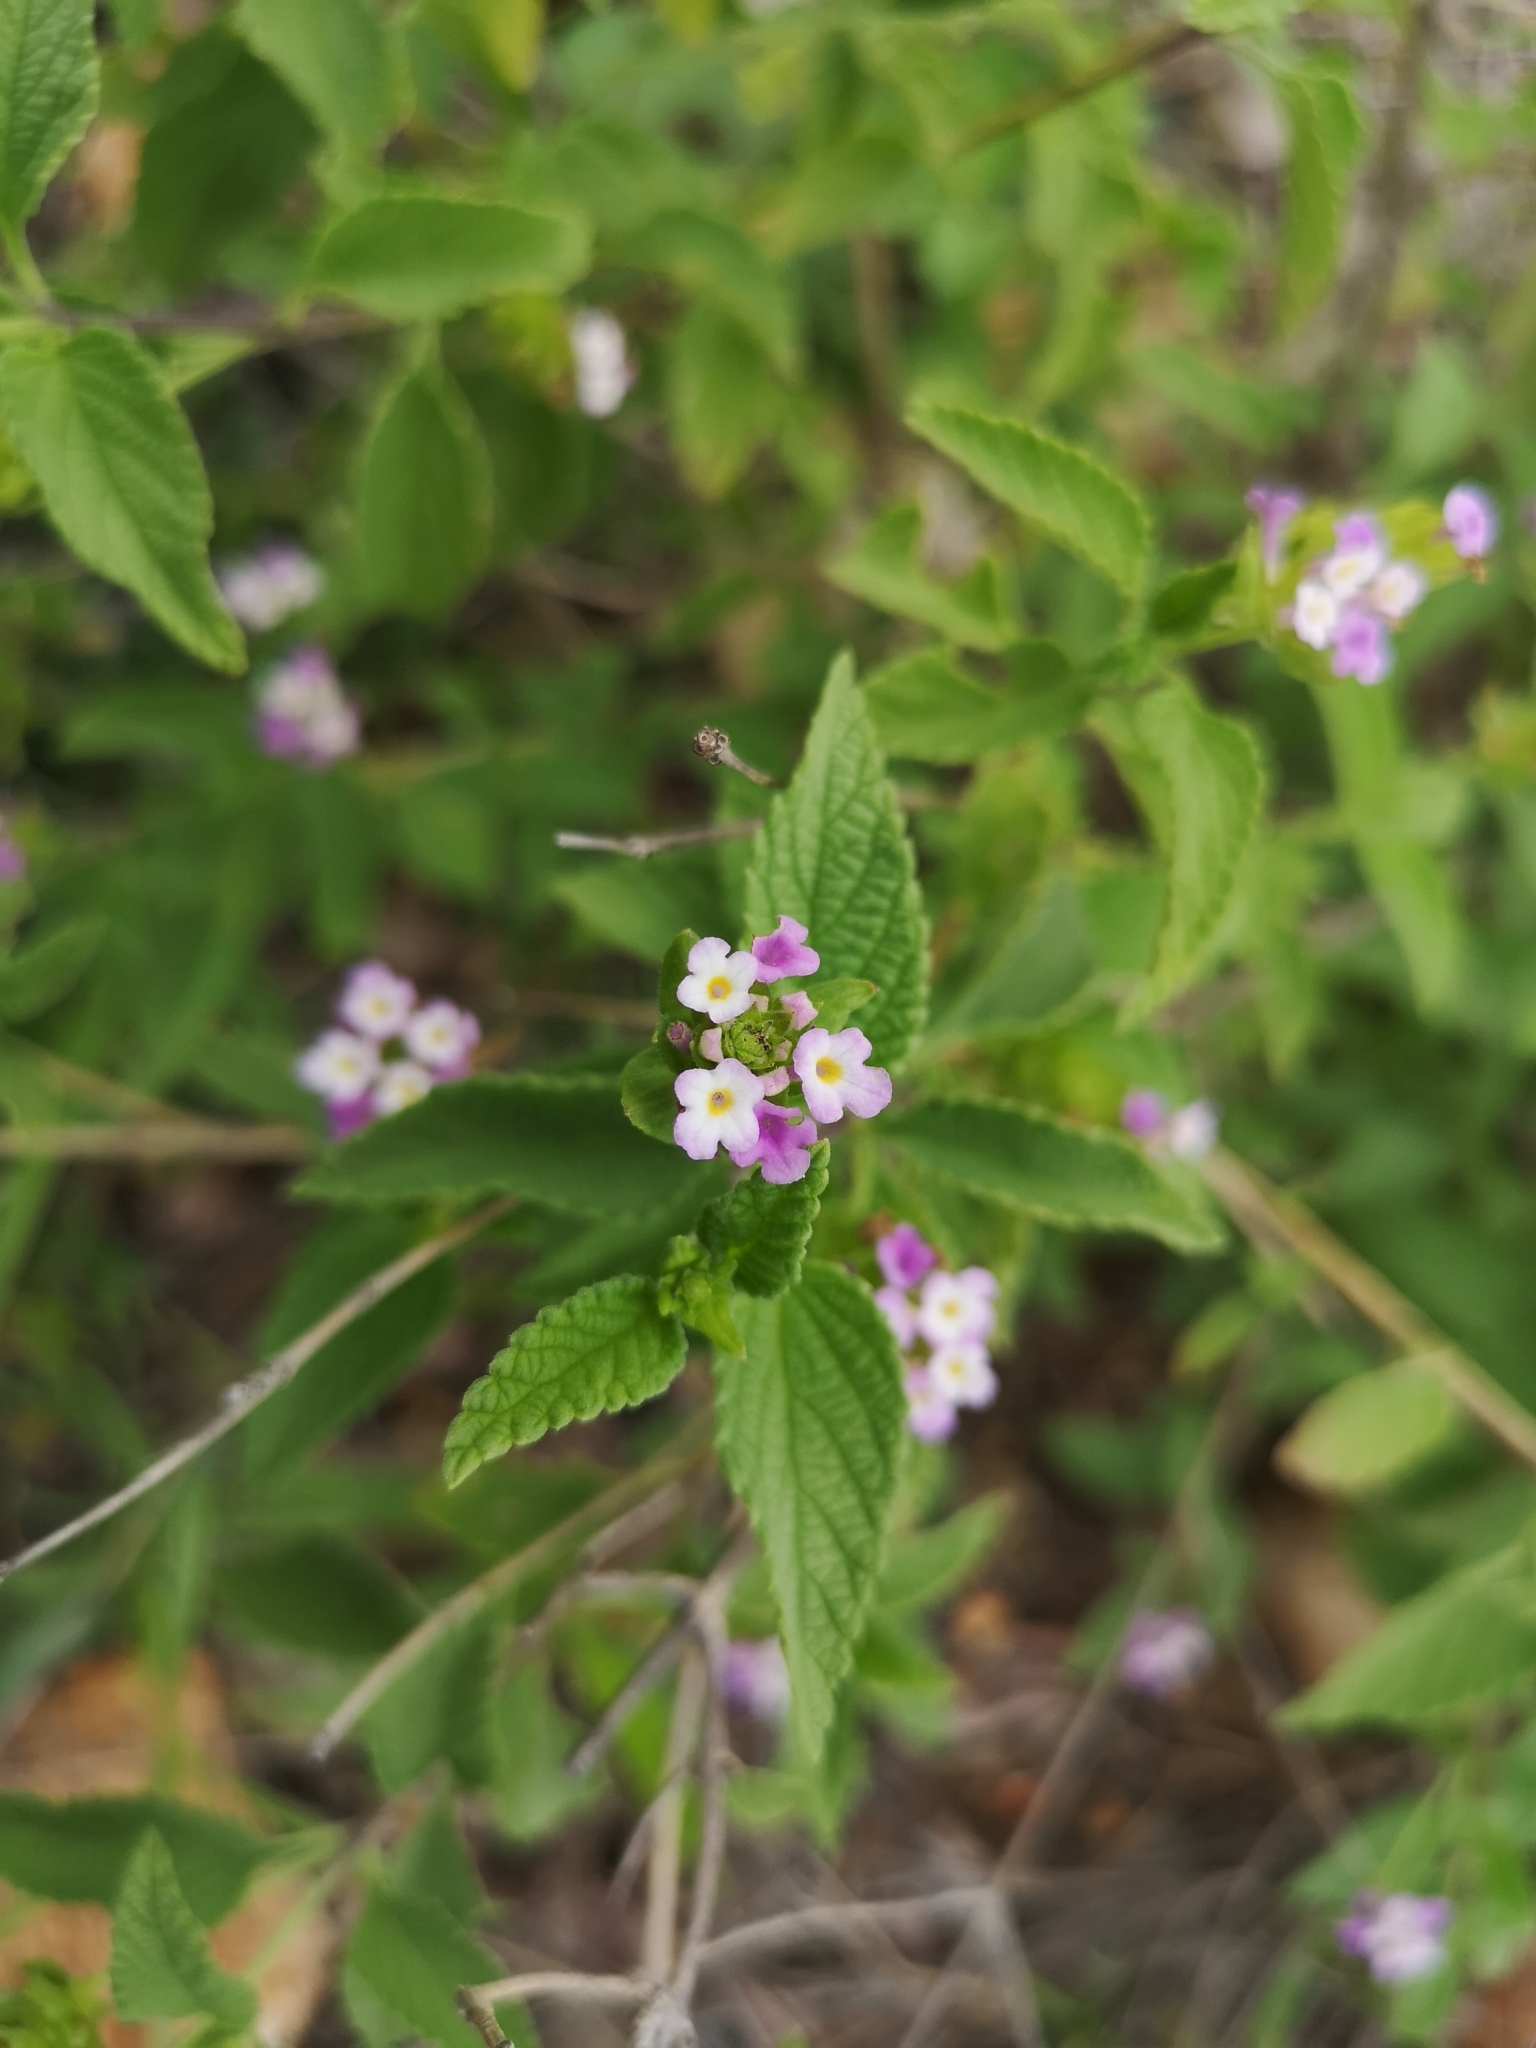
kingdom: Plantae
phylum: Tracheophyta
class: Magnoliopsida
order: Lamiales
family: Verbenaceae
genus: Lantana
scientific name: Lantana rugosa
